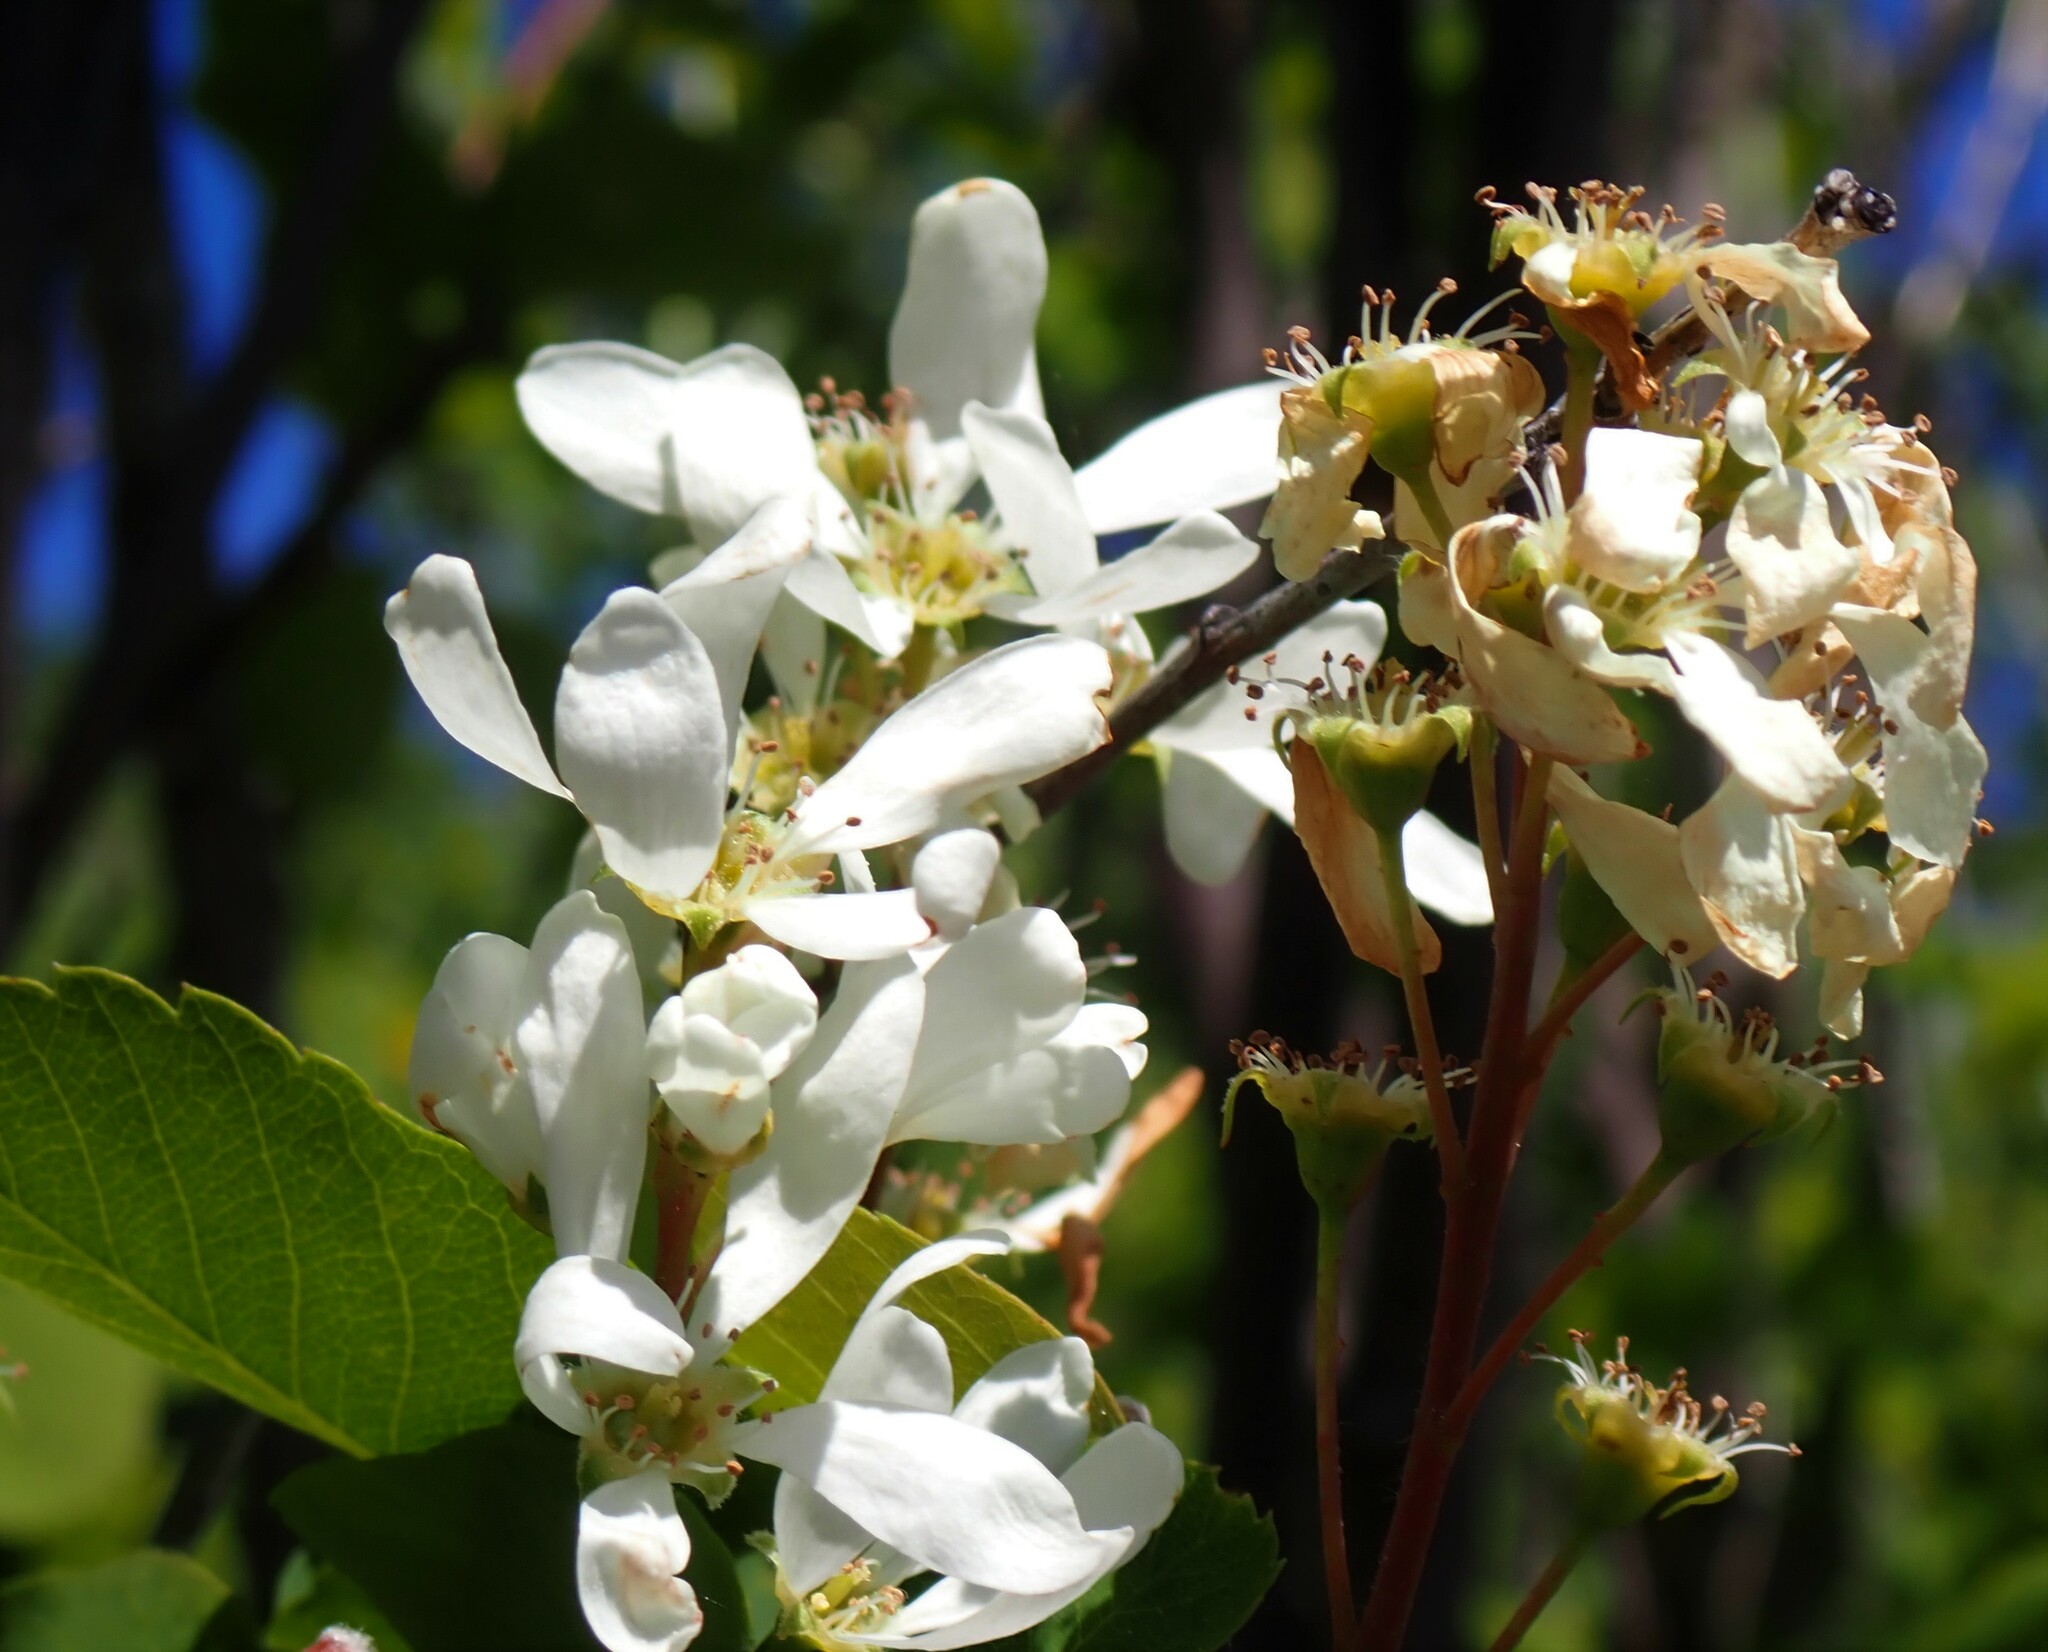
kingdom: Plantae
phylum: Tracheophyta
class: Magnoliopsida
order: Rosales
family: Rosaceae
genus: Amelanchier
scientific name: Amelanchier alnifolia
